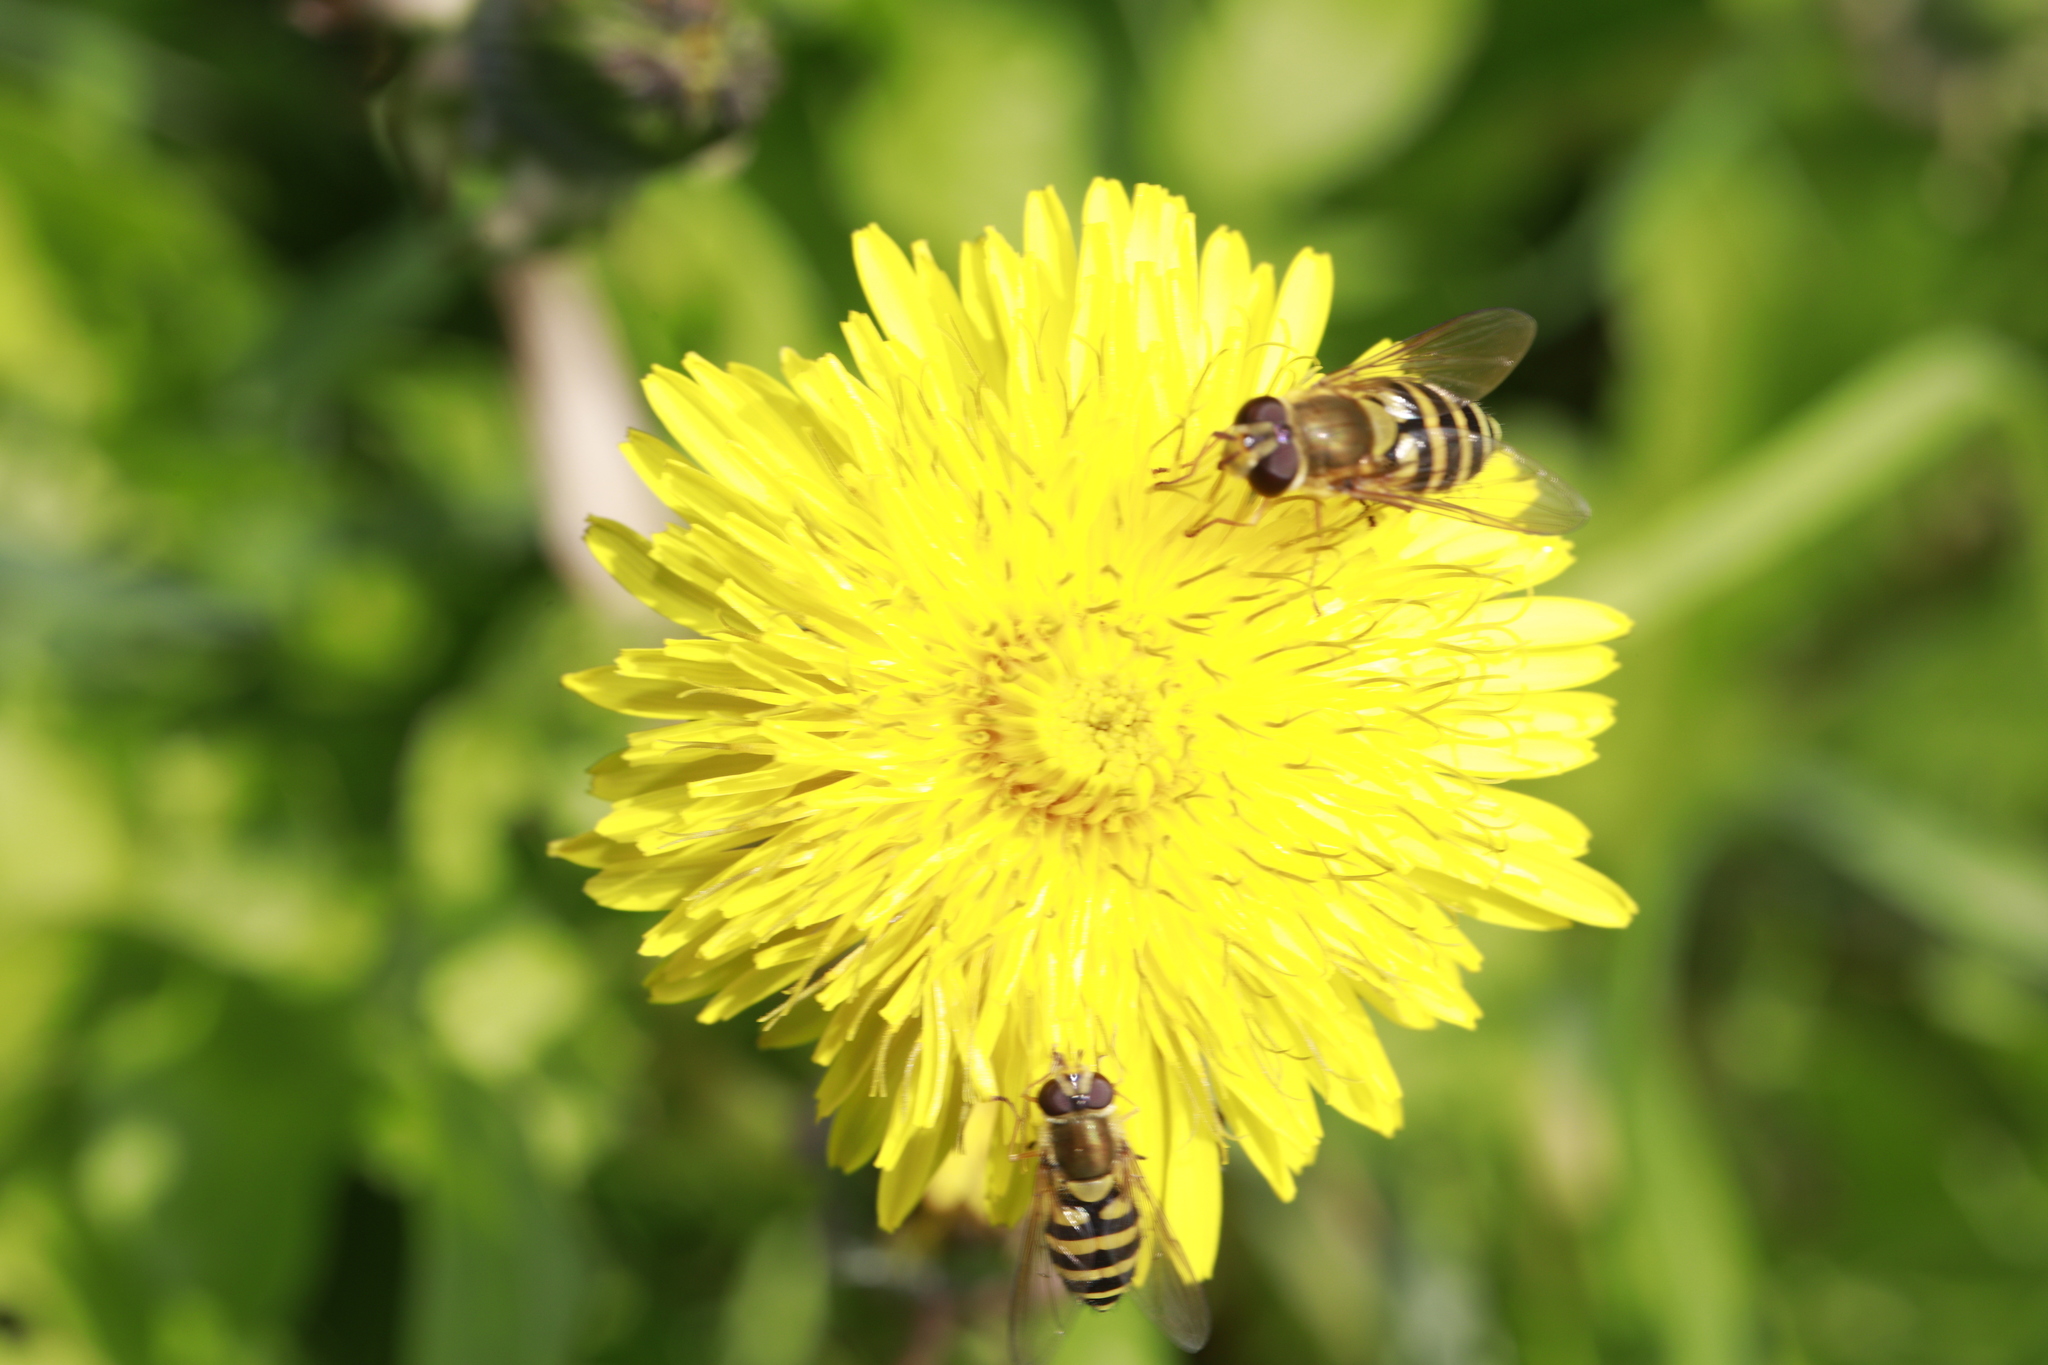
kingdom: Animalia
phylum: Arthropoda
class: Insecta
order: Diptera
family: Syrphidae
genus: Syrphus
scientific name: Syrphus
